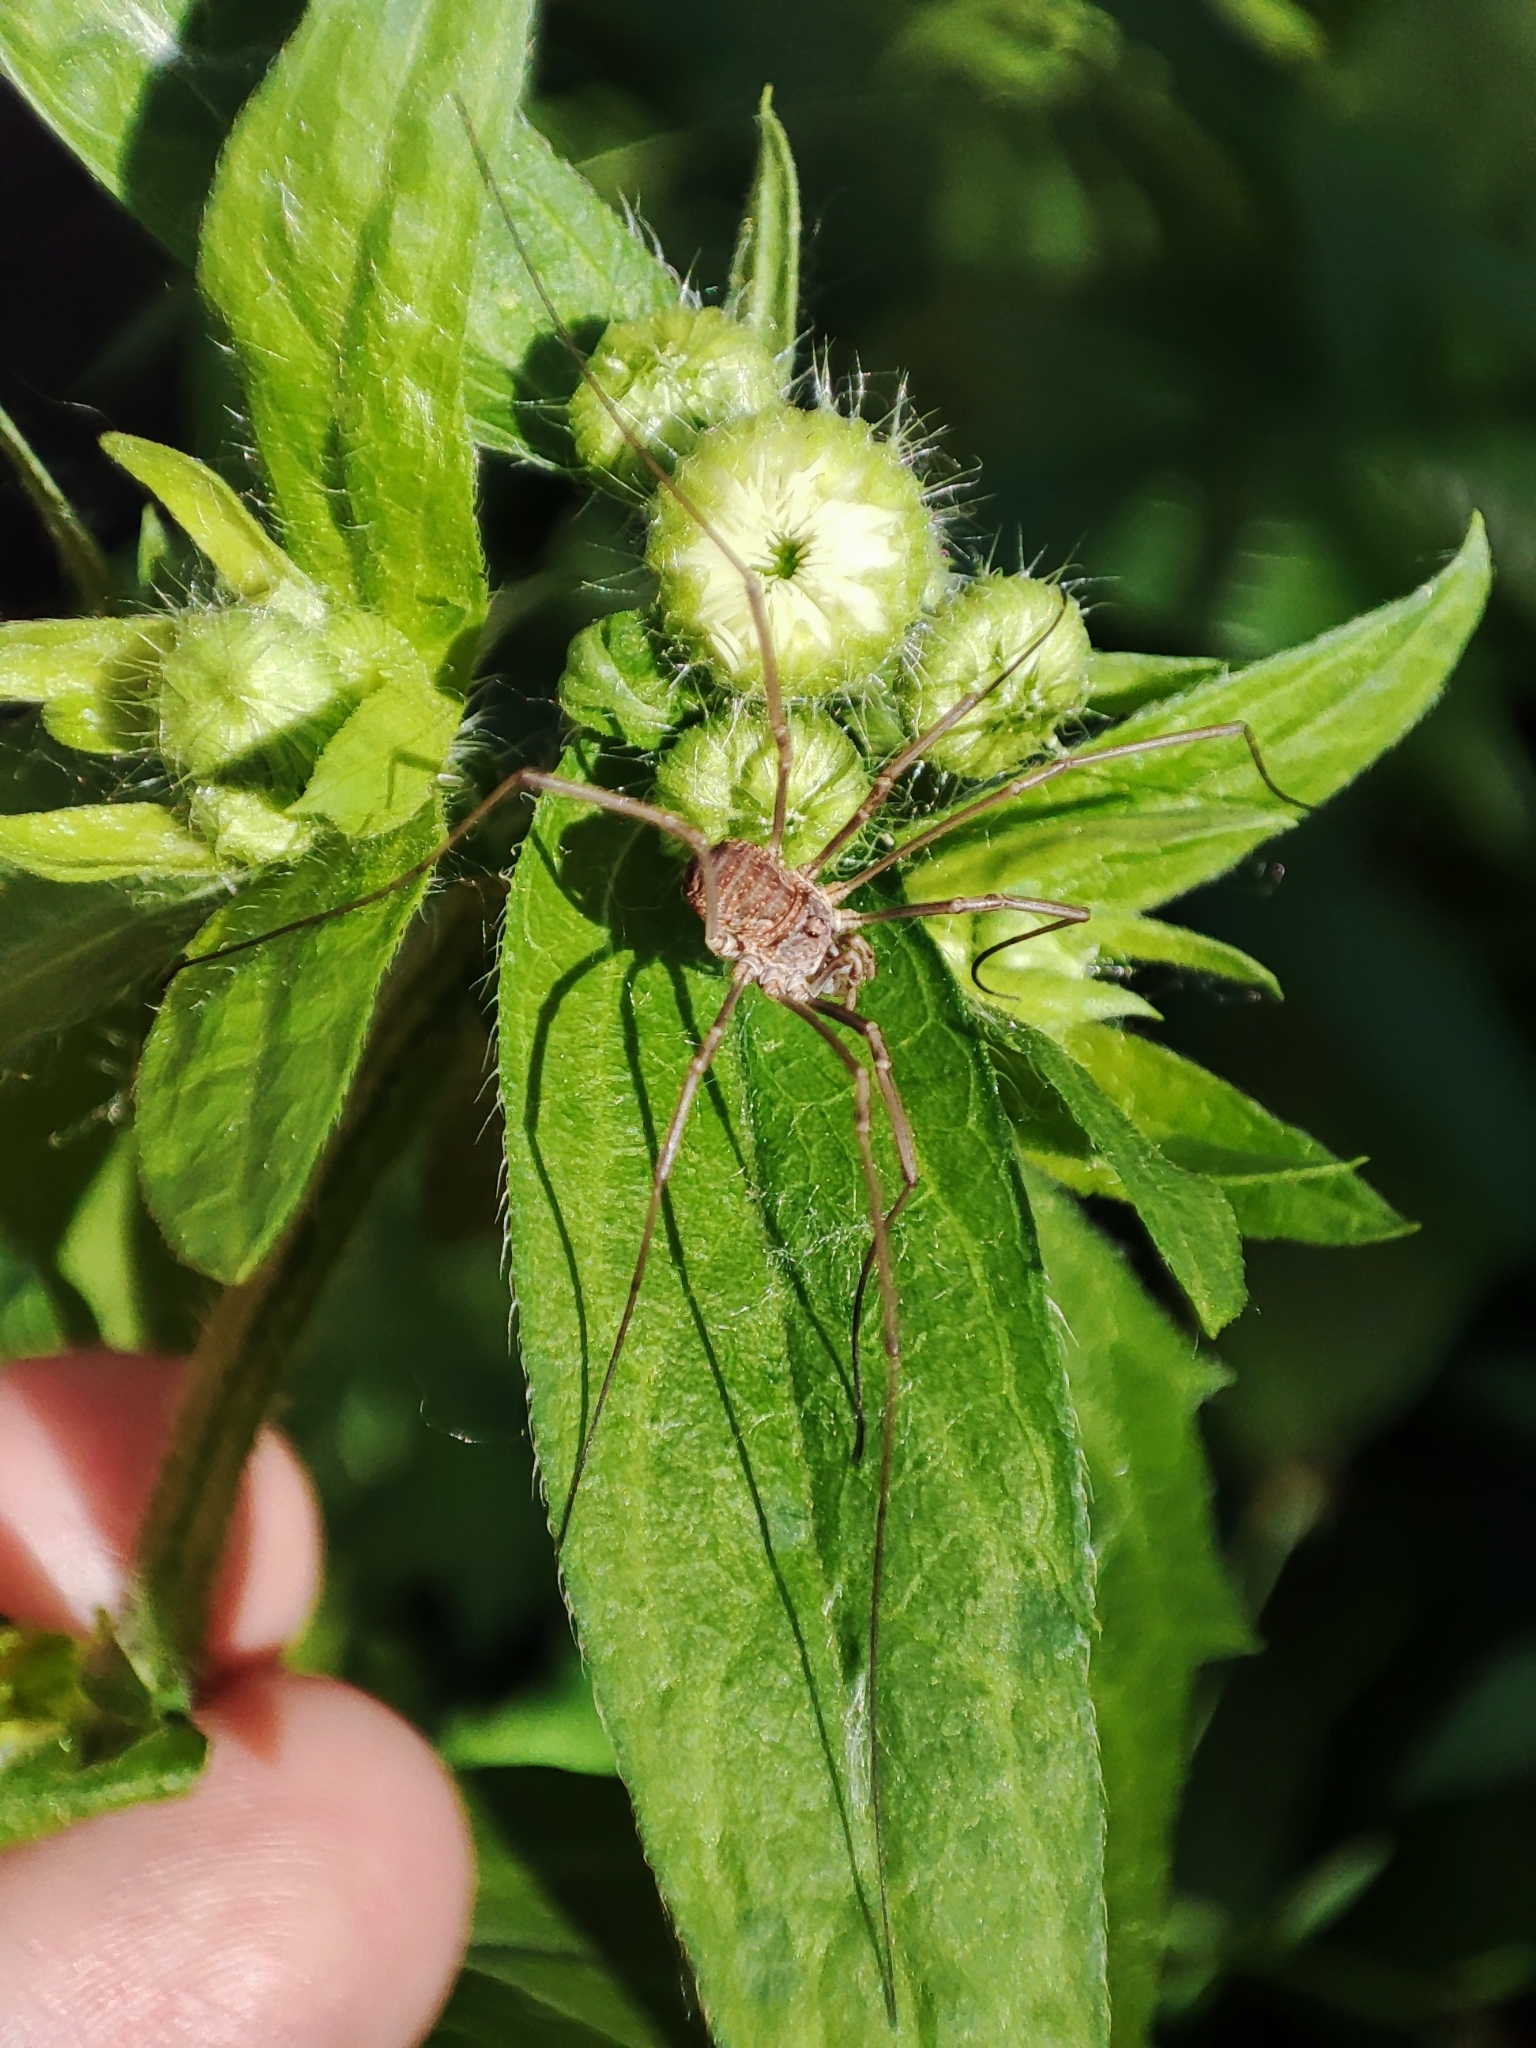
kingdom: Animalia
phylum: Arthropoda
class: Arachnida
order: Opiliones
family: Phalangiidae
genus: Phalangium
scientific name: Phalangium opilio
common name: Daddy longleg
